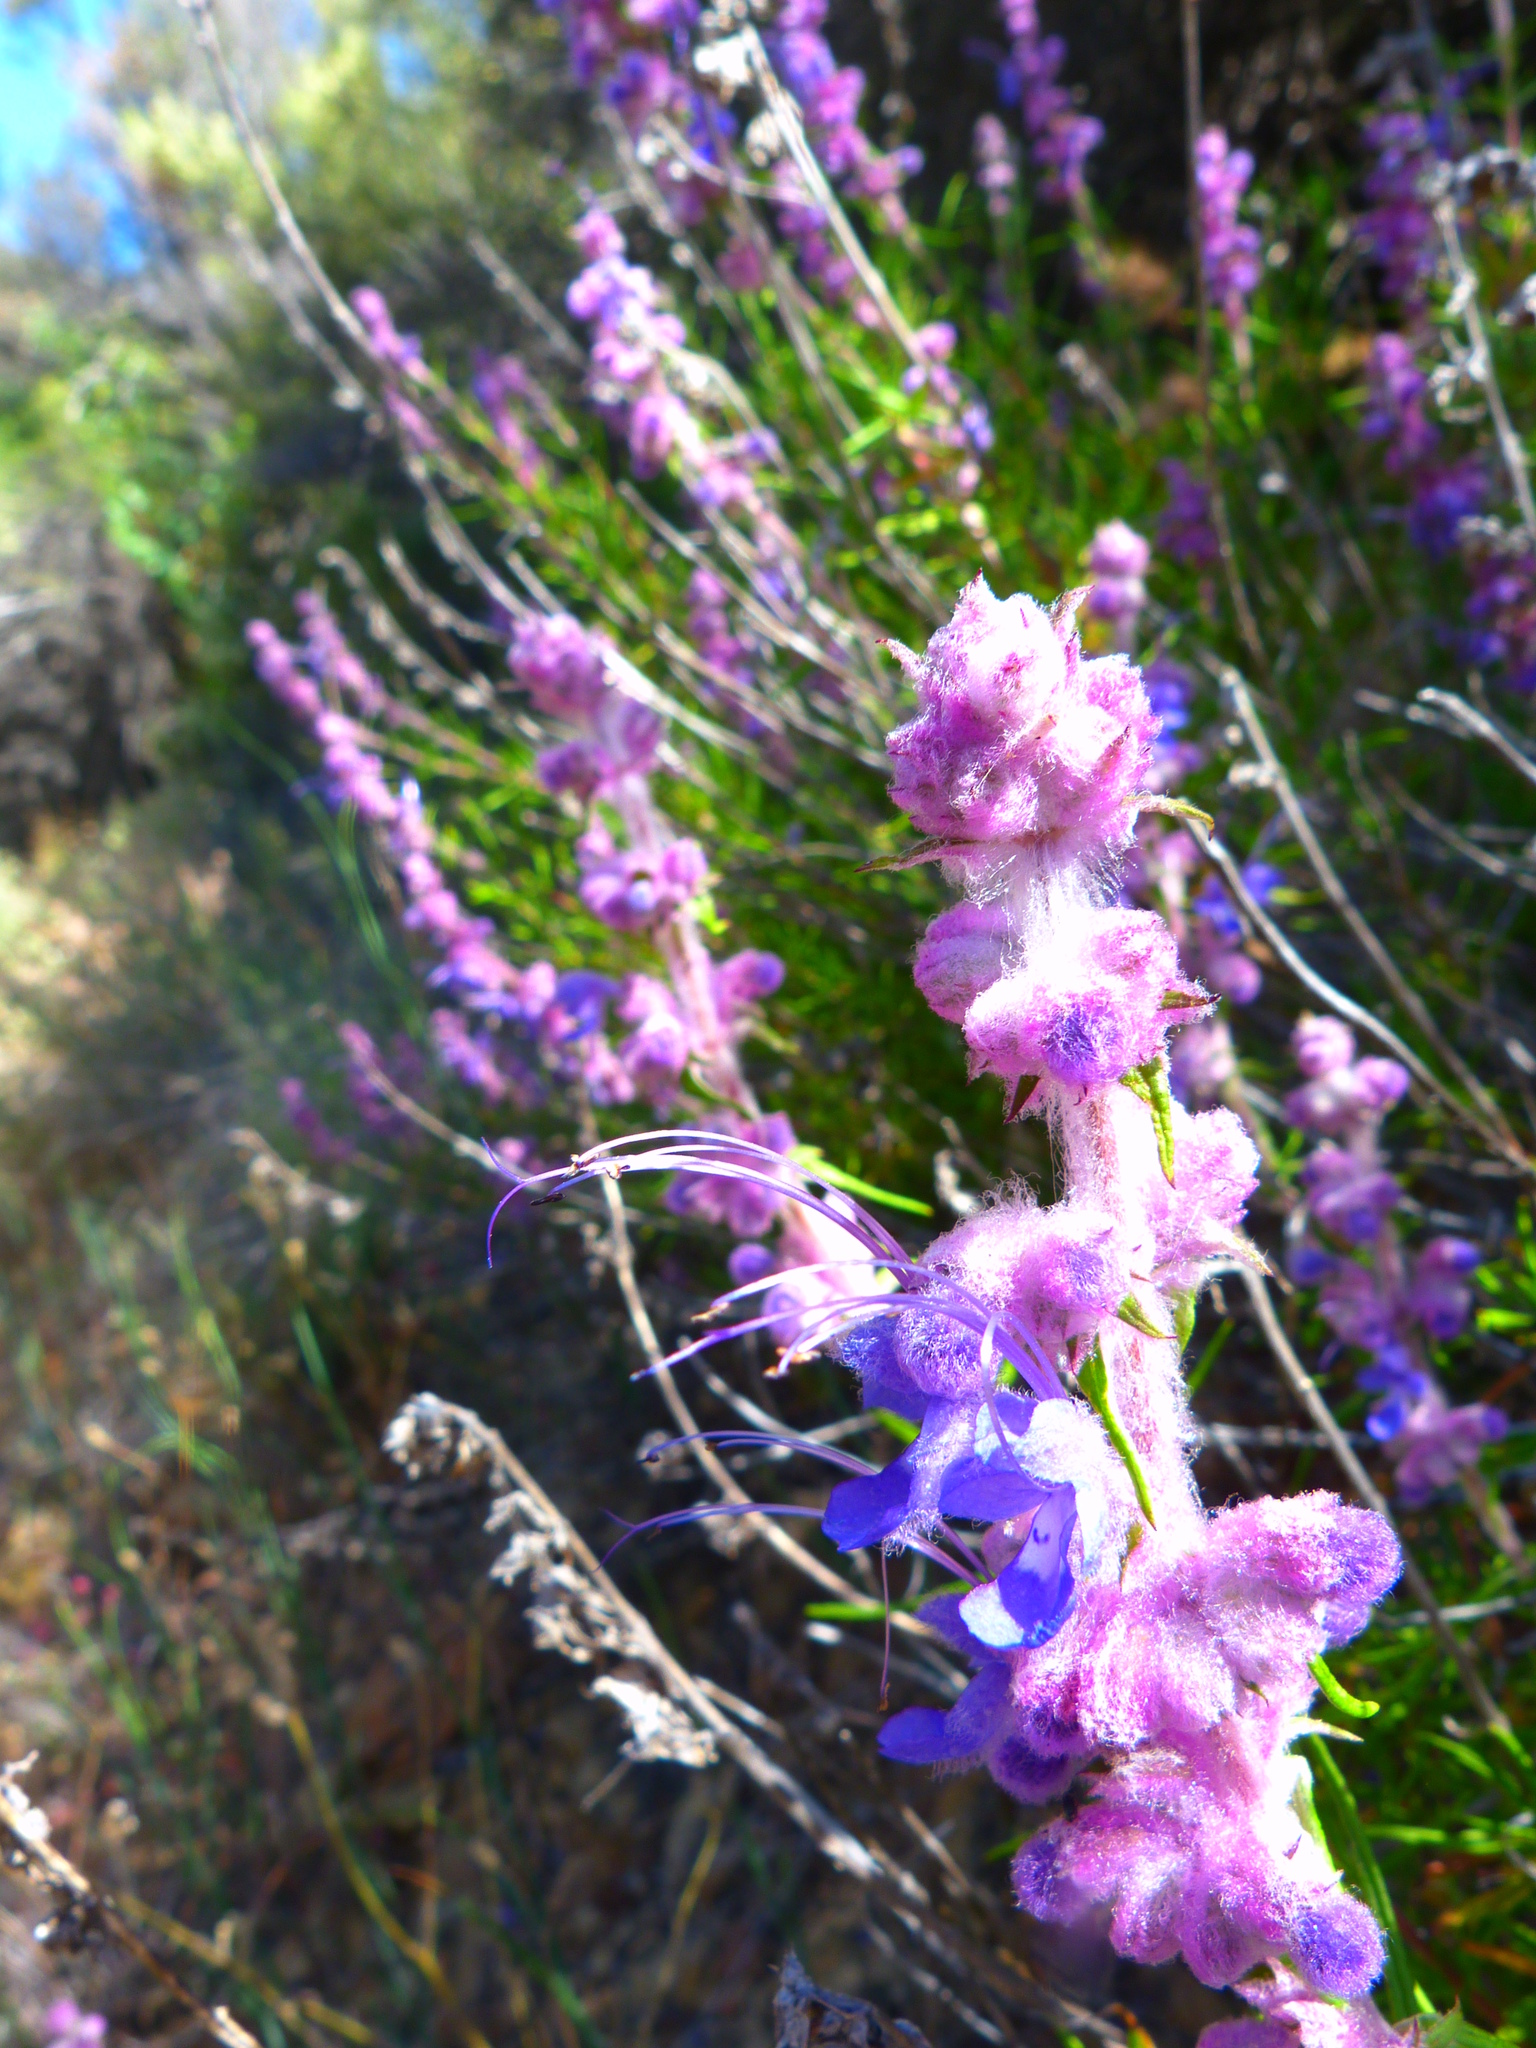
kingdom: Plantae
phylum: Tracheophyta
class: Magnoliopsida
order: Lamiales
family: Lamiaceae
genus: Trichostema
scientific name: Trichostema lanatum
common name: Woolly bluecurls
